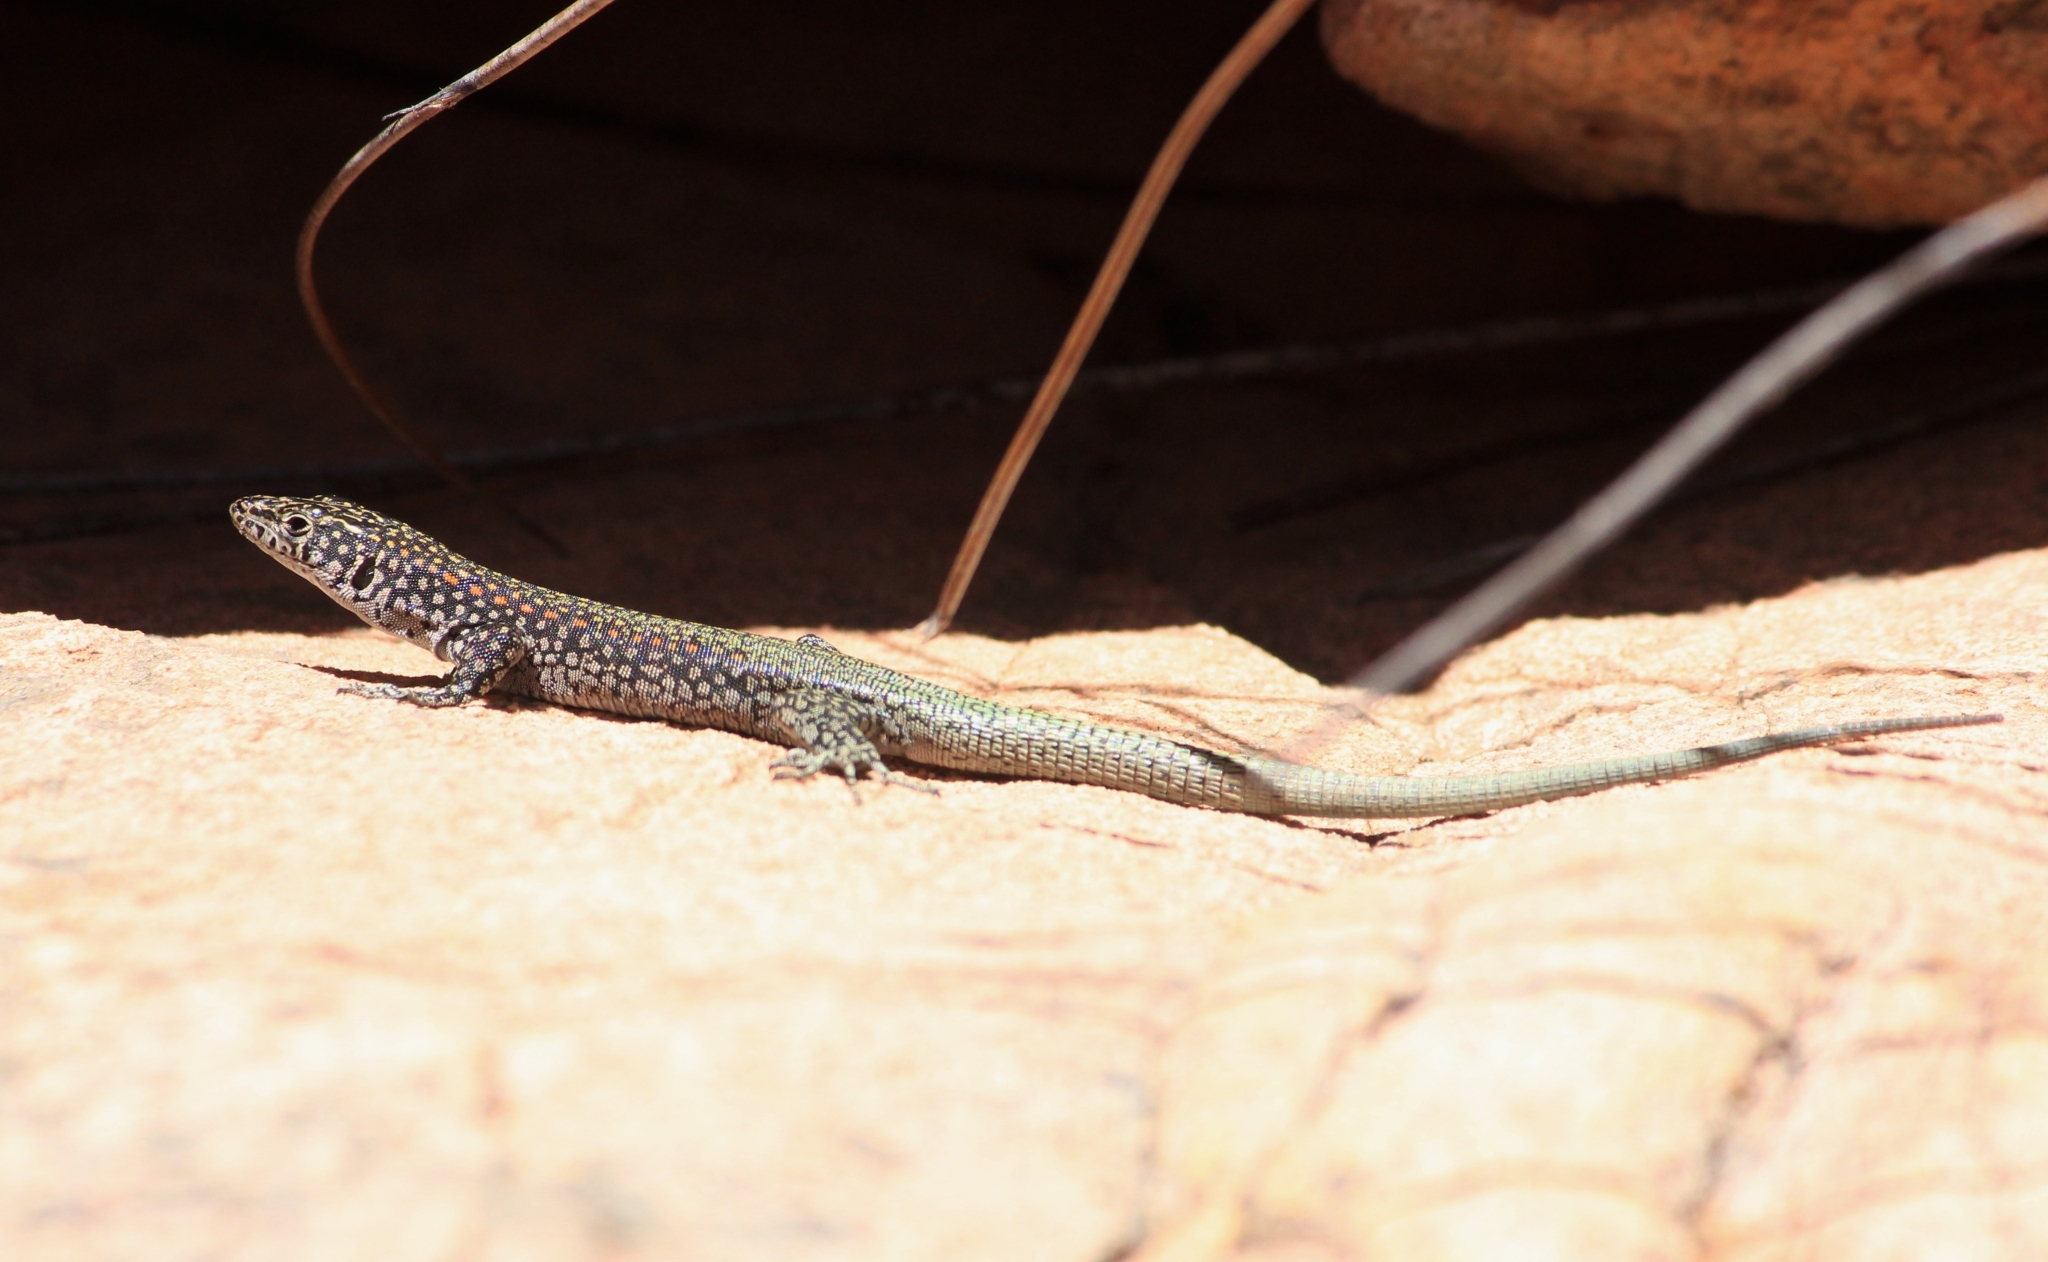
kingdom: Animalia
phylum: Chordata
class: Squamata
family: Lacertidae
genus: Australolacerta
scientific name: Australolacerta australis
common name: Southern rock lizard
